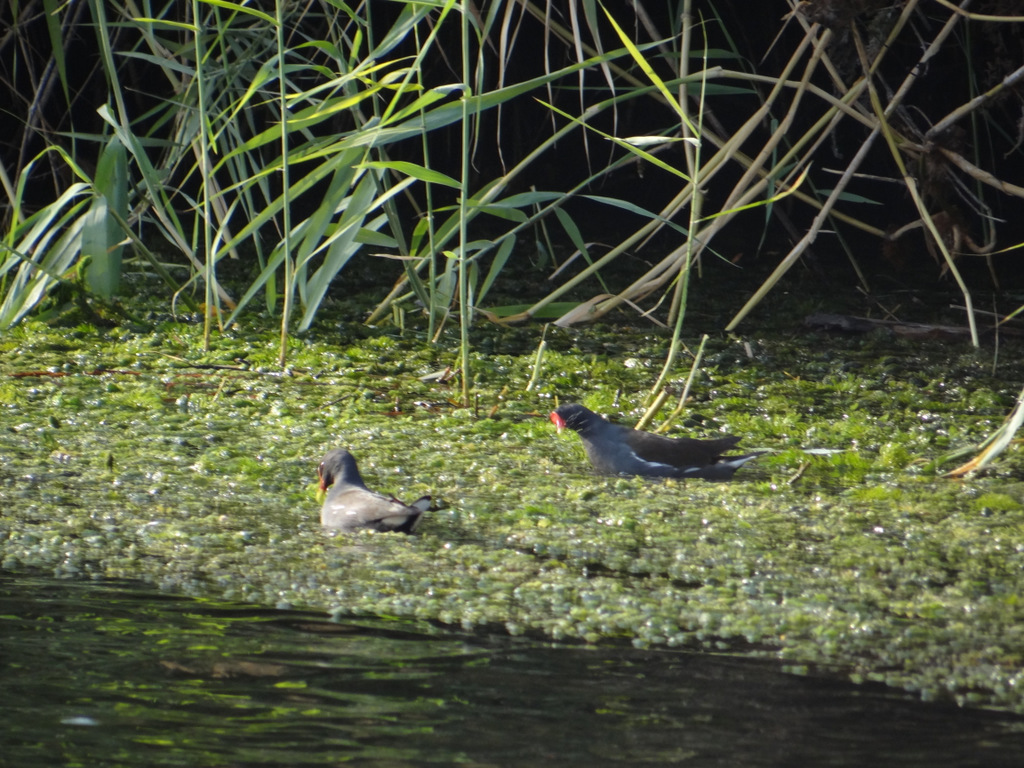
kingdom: Animalia
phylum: Chordata
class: Aves
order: Gruiformes
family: Rallidae
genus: Gallinula
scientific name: Gallinula chloropus
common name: Common moorhen
